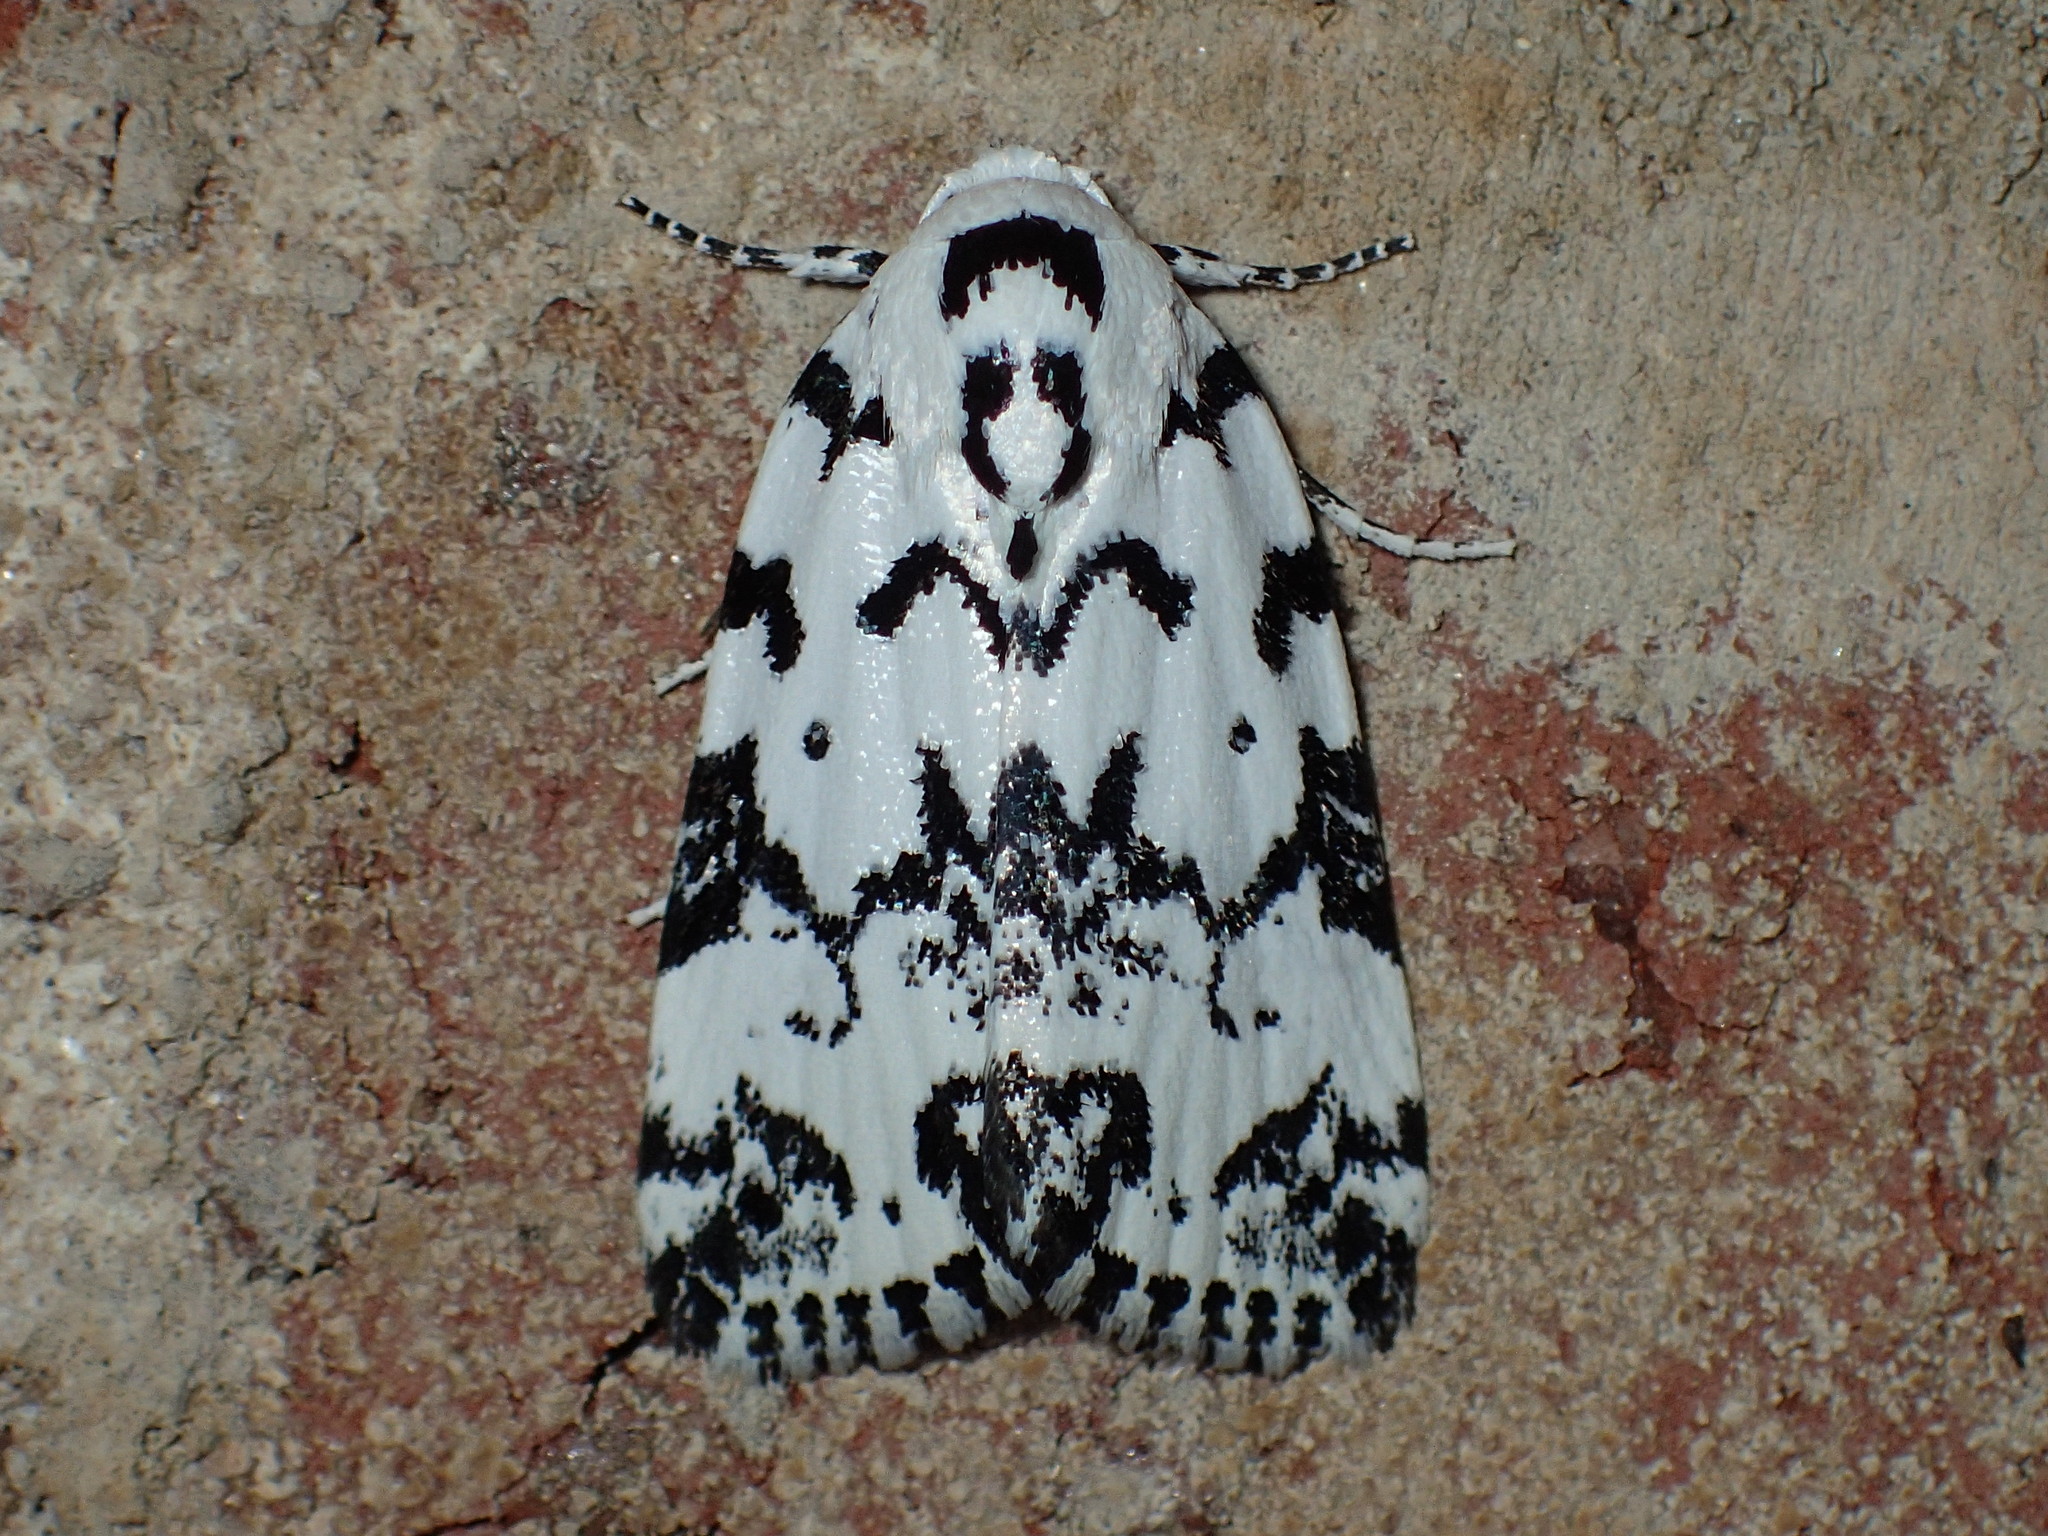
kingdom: Animalia
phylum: Arthropoda
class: Insecta
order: Lepidoptera
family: Noctuidae
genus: Polygrammate
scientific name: Polygrammate hebraeicum
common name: Hebrew moth
